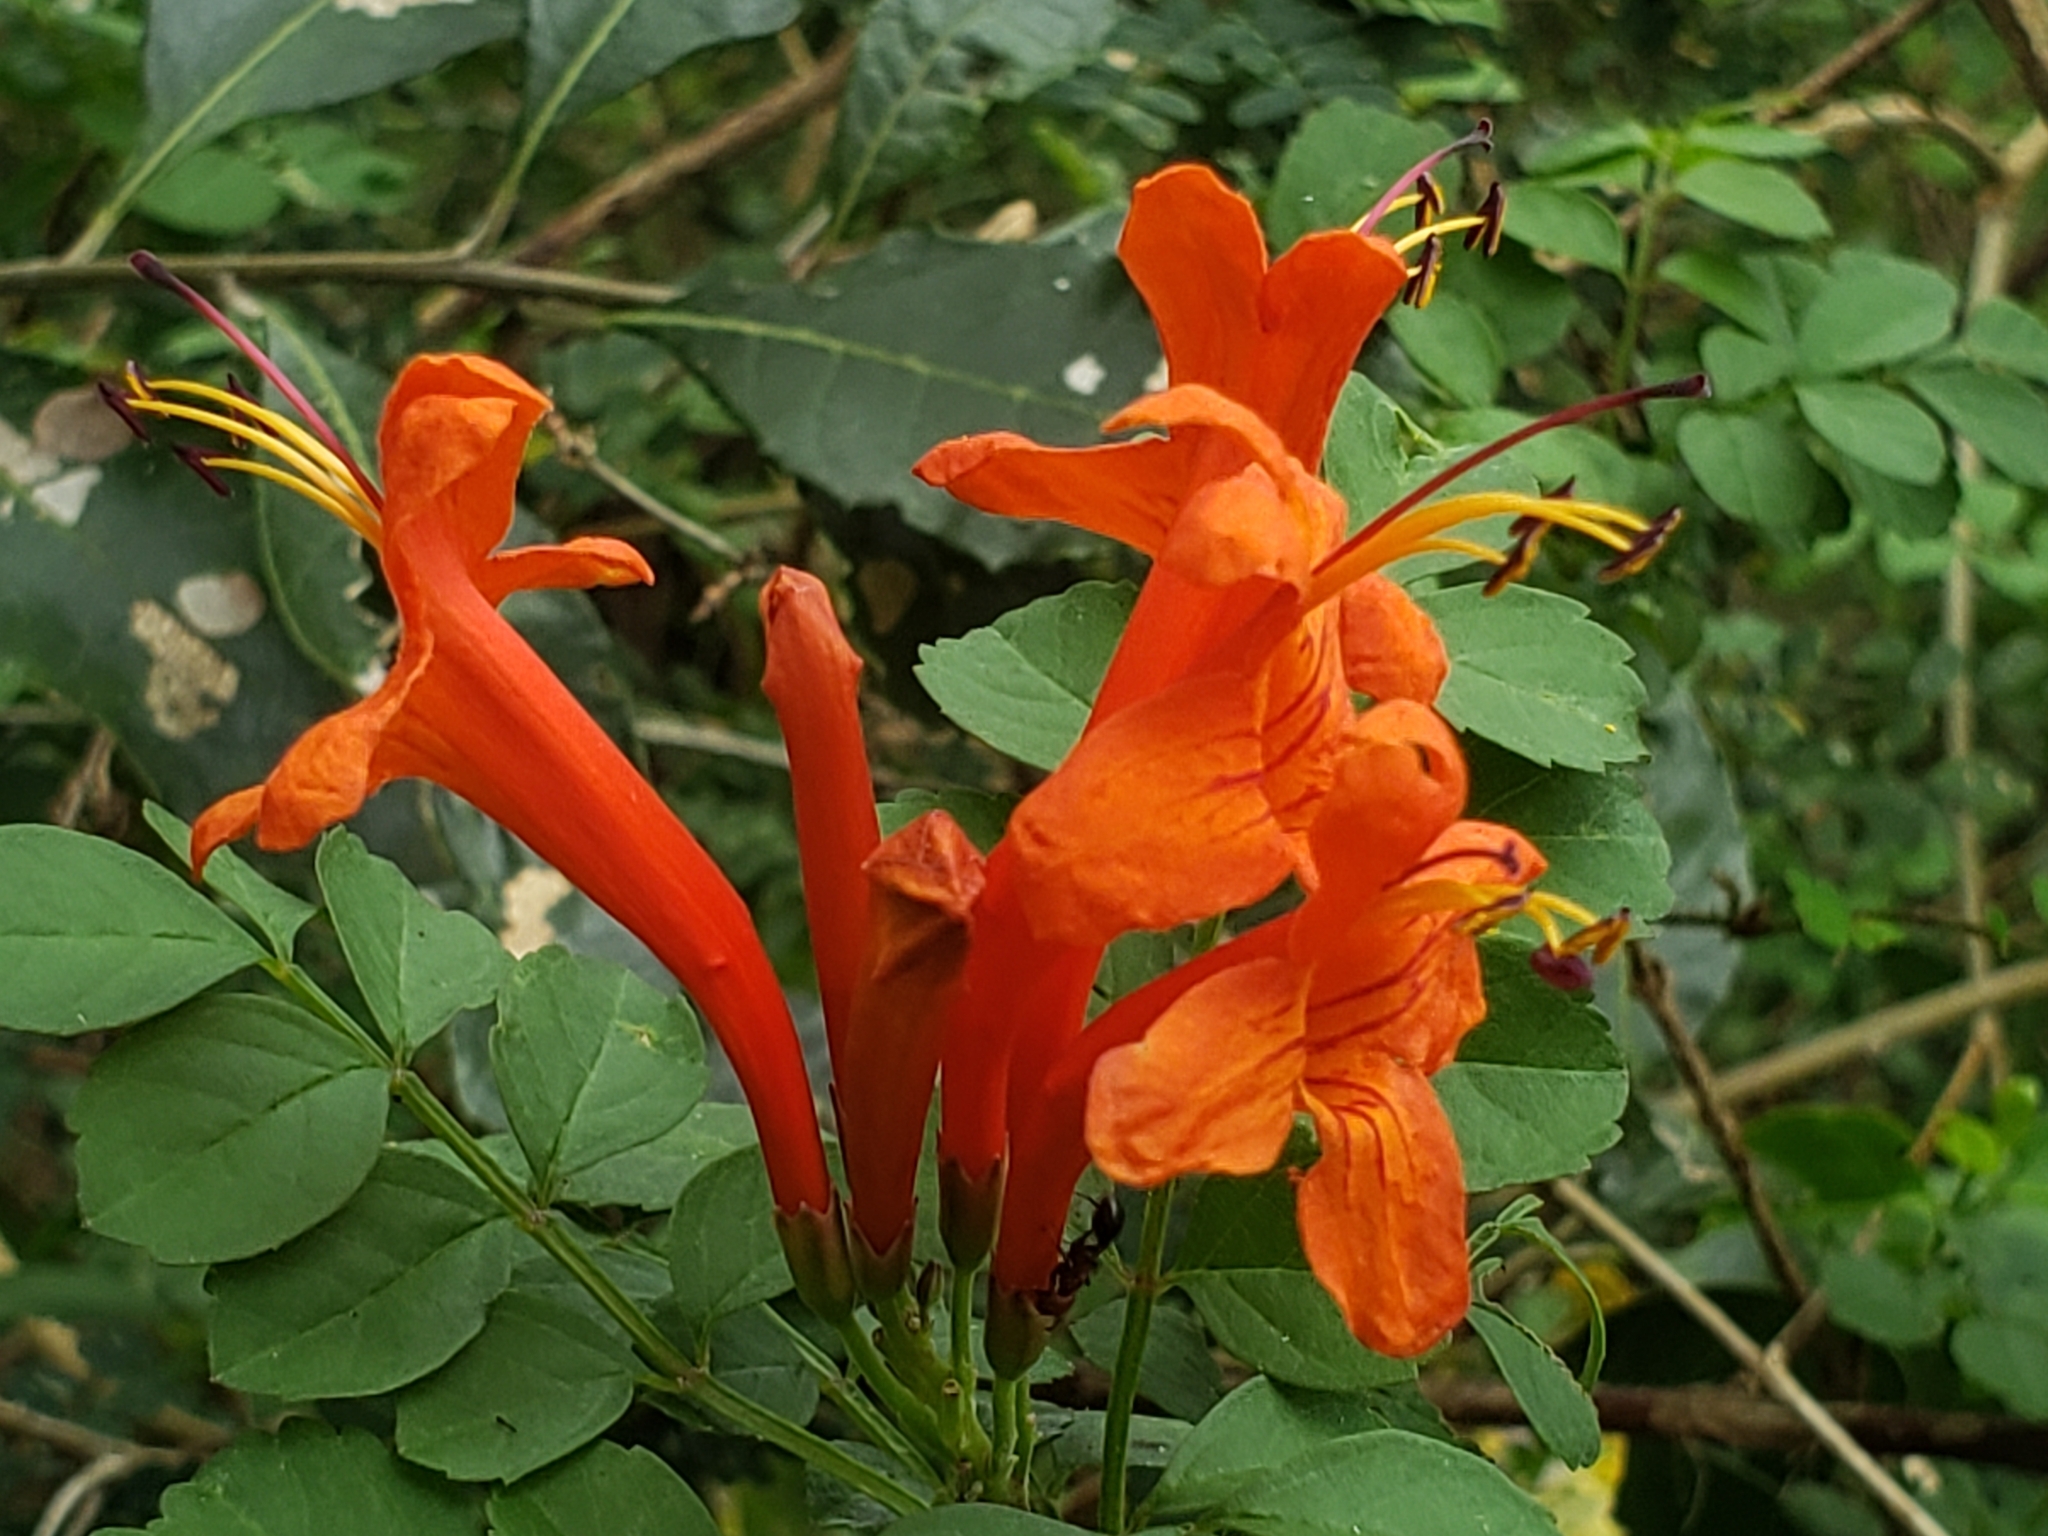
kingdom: Plantae
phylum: Tracheophyta
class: Magnoliopsida
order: Lamiales
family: Bignoniaceae
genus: Tecomaria
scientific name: Tecomaria capensis
